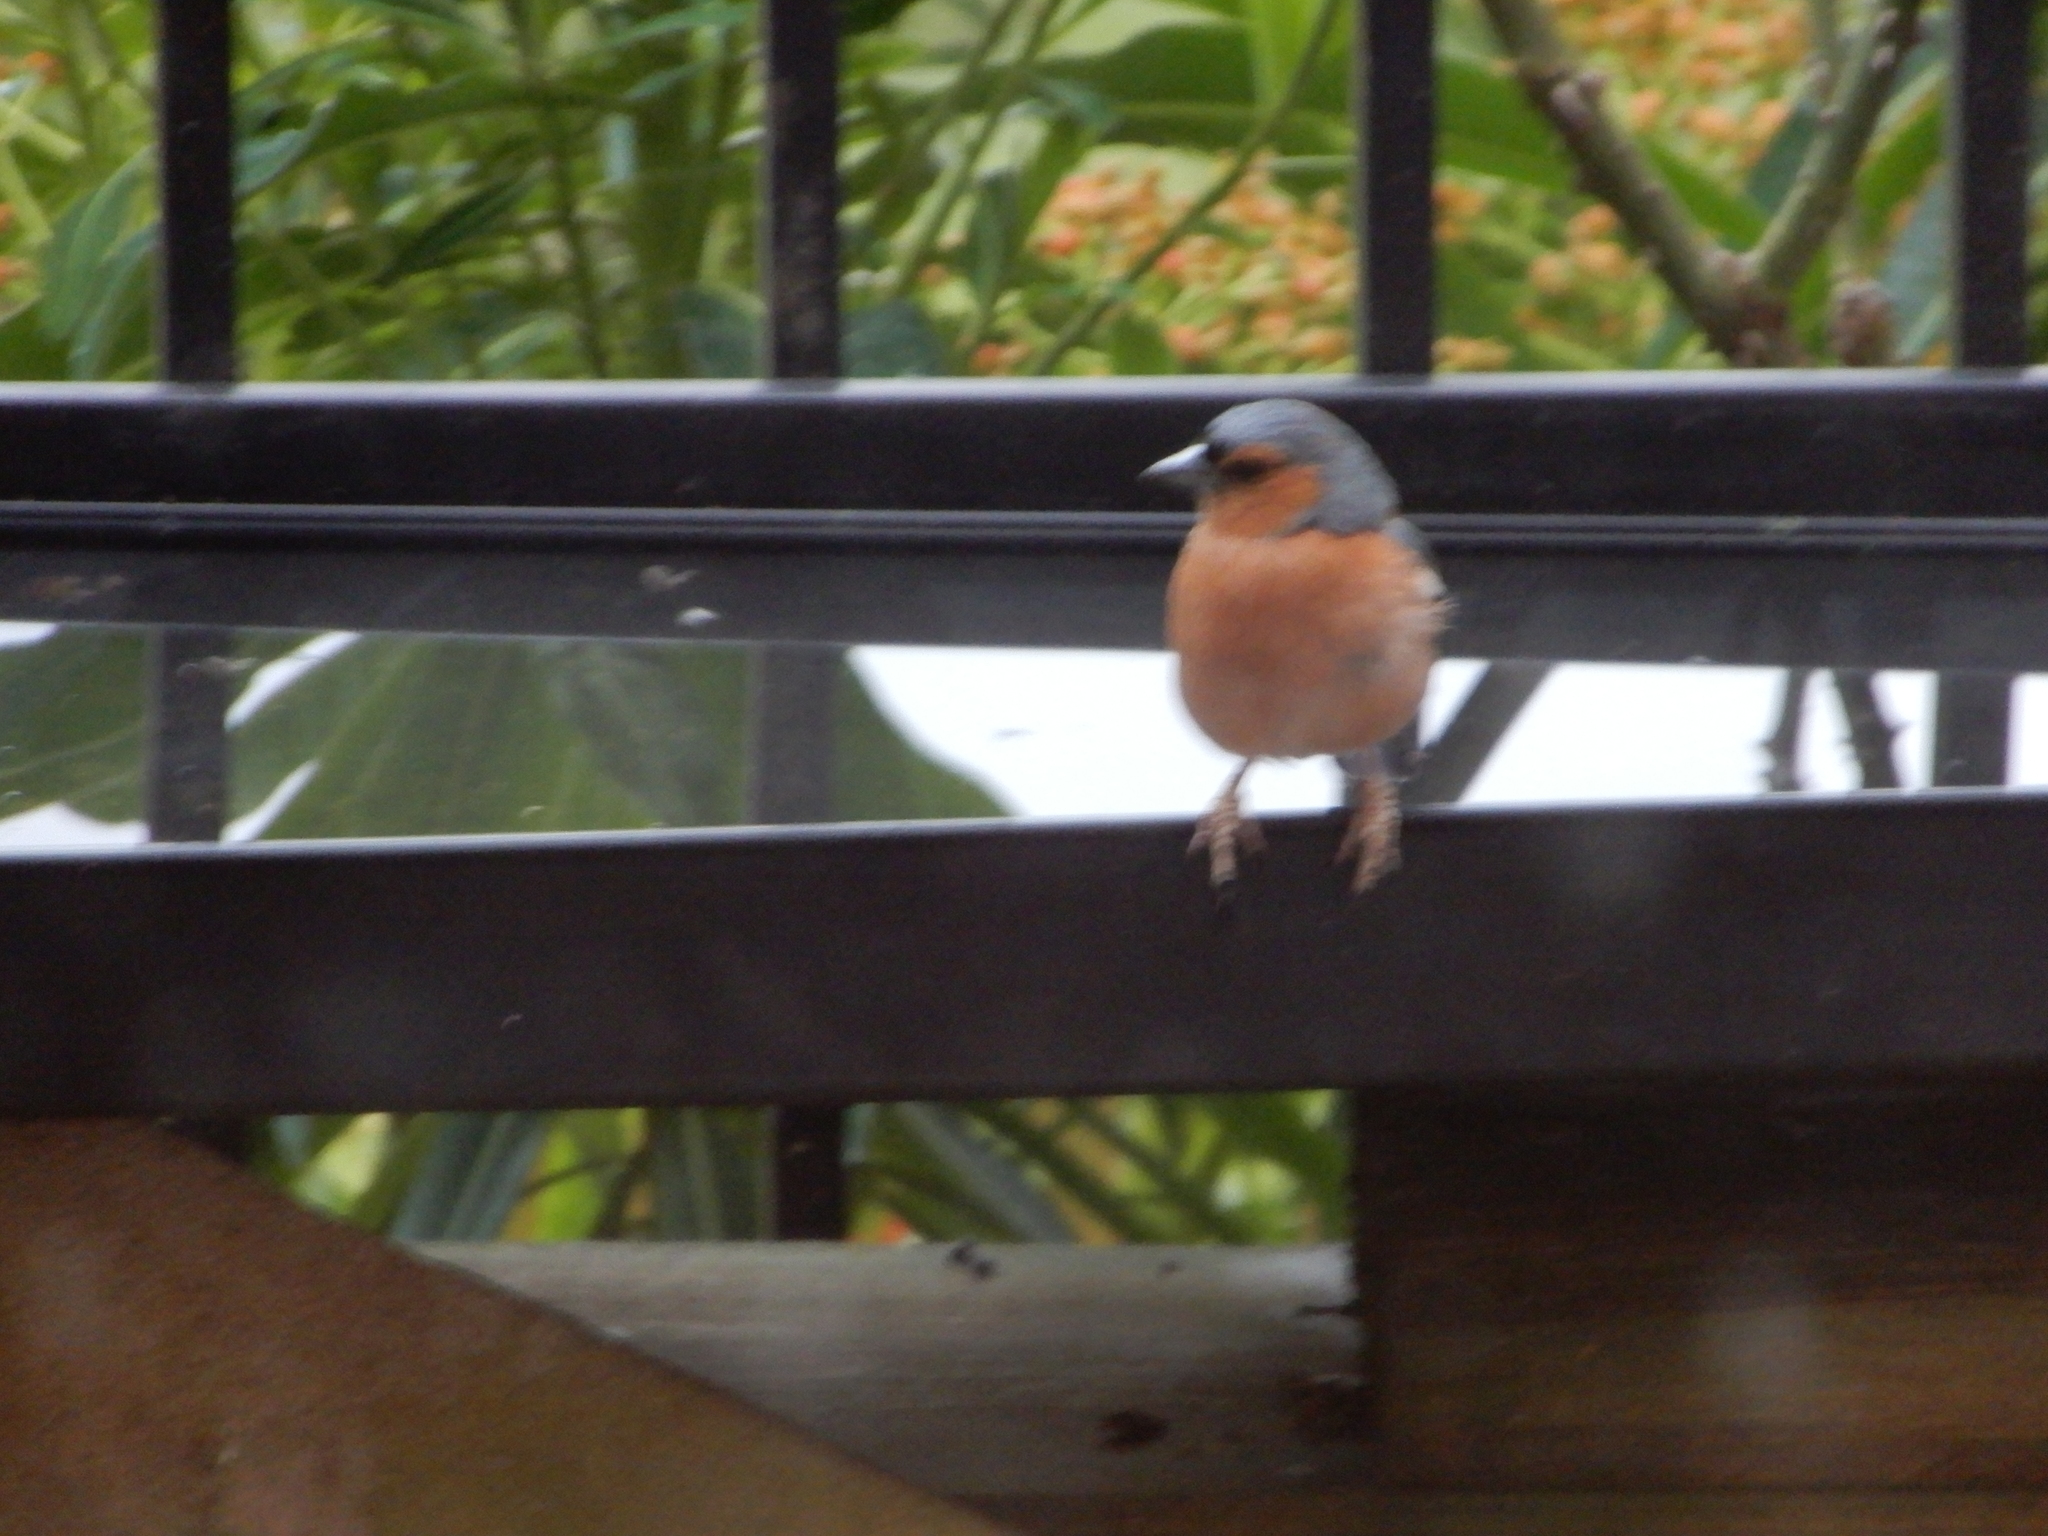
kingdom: Animalia
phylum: Chordata
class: Aves
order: Passeriformes
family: Fringillidae
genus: Fringilla
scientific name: Fringilla coelebs
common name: Common chaffinch
